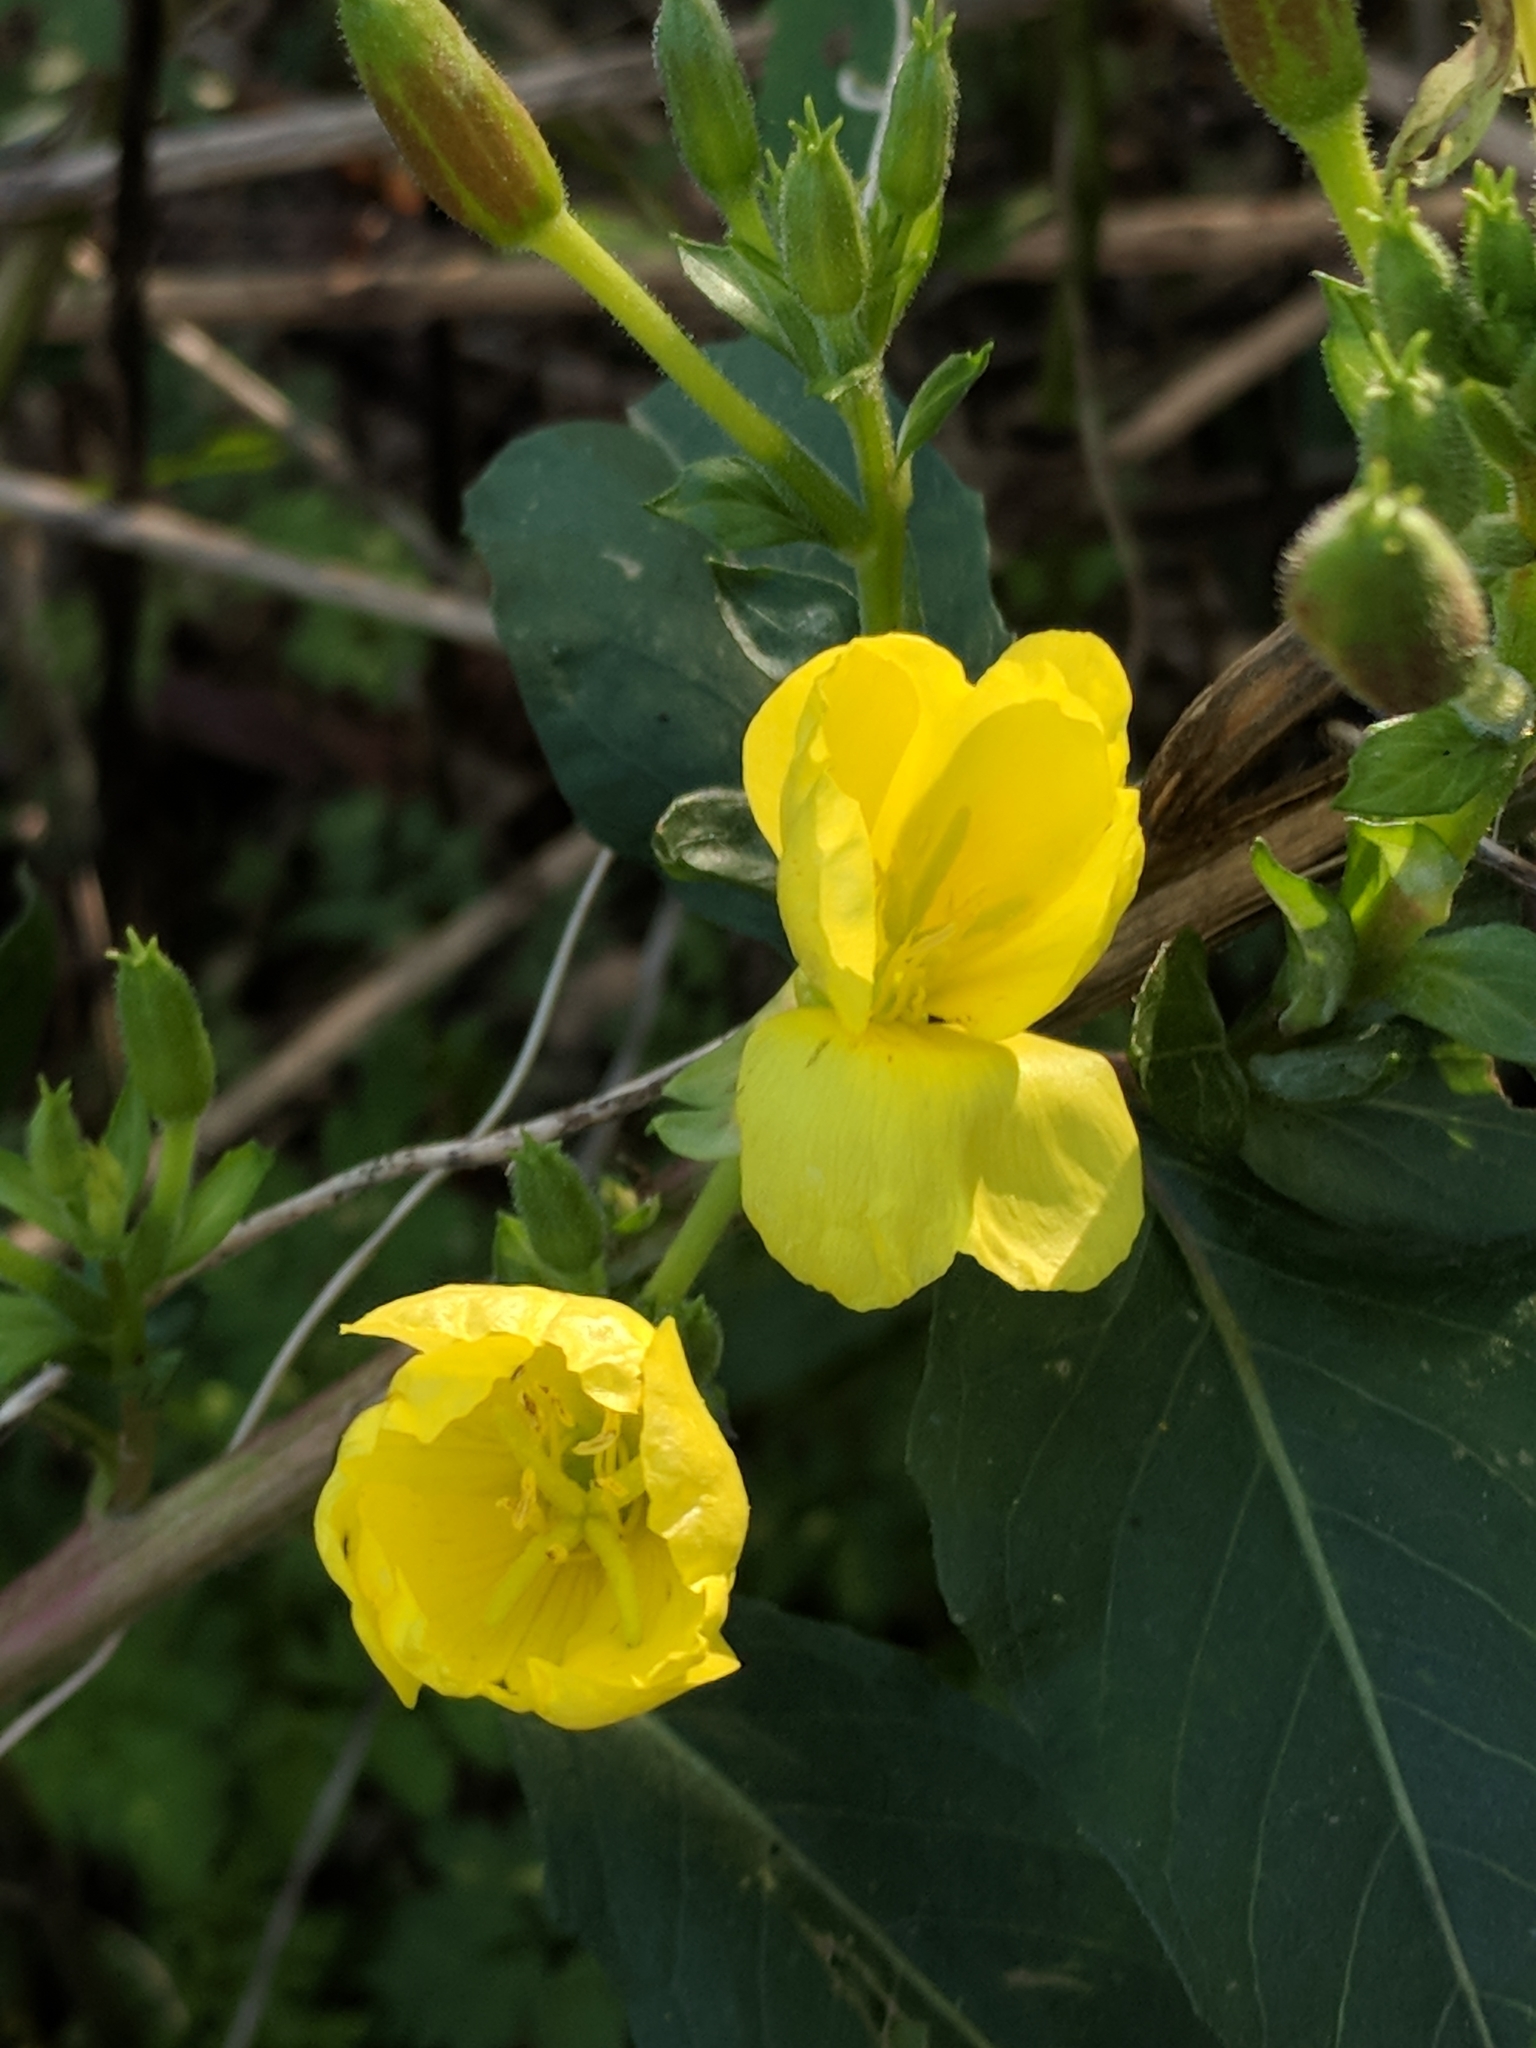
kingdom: Plantae
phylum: Tracheophyta
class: Magnoliopsida
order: Myrtales
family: Onagraceae
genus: Oenothera
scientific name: Oenothera biennis
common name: Common evening-primrose
